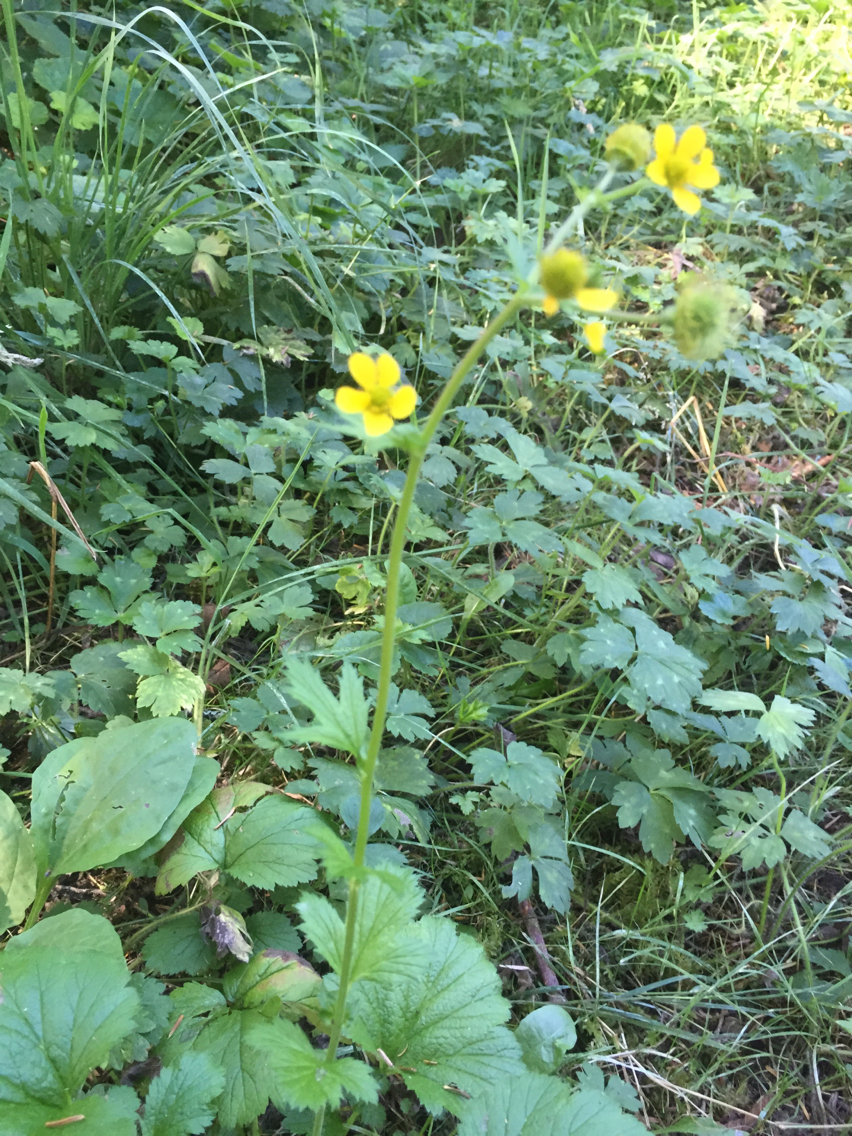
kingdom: Plantae
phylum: Tracheophyta
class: Magnoliopsida
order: Rosales
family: Rosaceae
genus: Geum
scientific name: Geum macrophyllum
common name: Large-leaved avens
